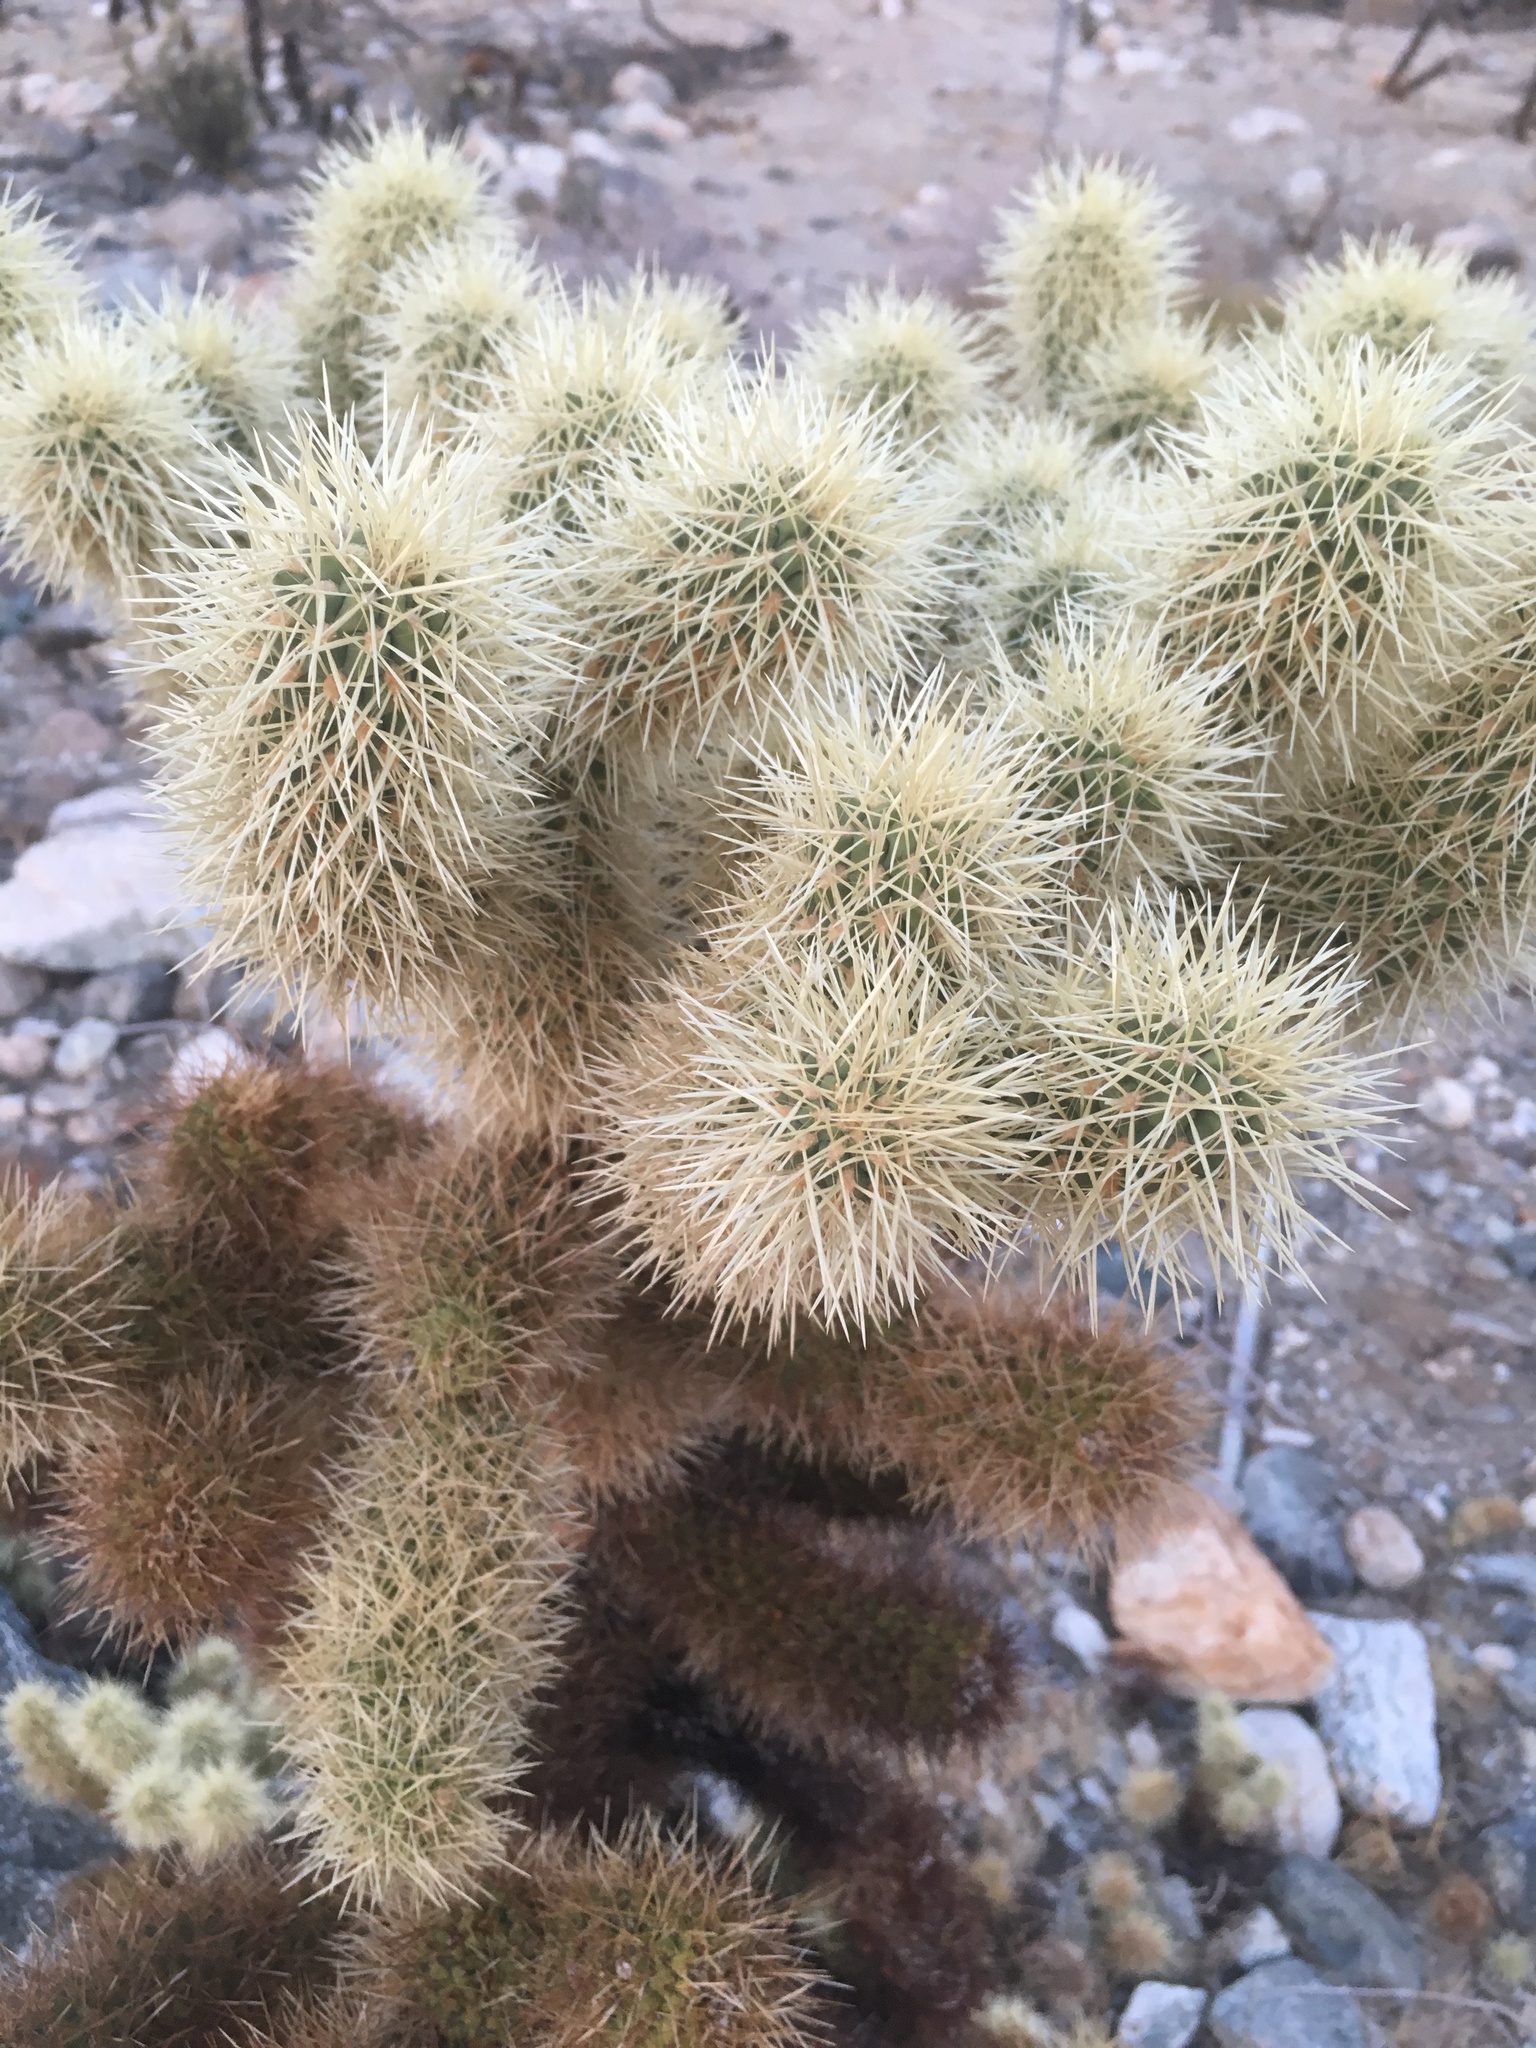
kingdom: Plantae
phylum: Tracheophyta
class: Magnoliopsida
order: Caryophyllales
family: Cactaceae
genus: Cylindropuntia
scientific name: Cylindropuntia fosbergii
